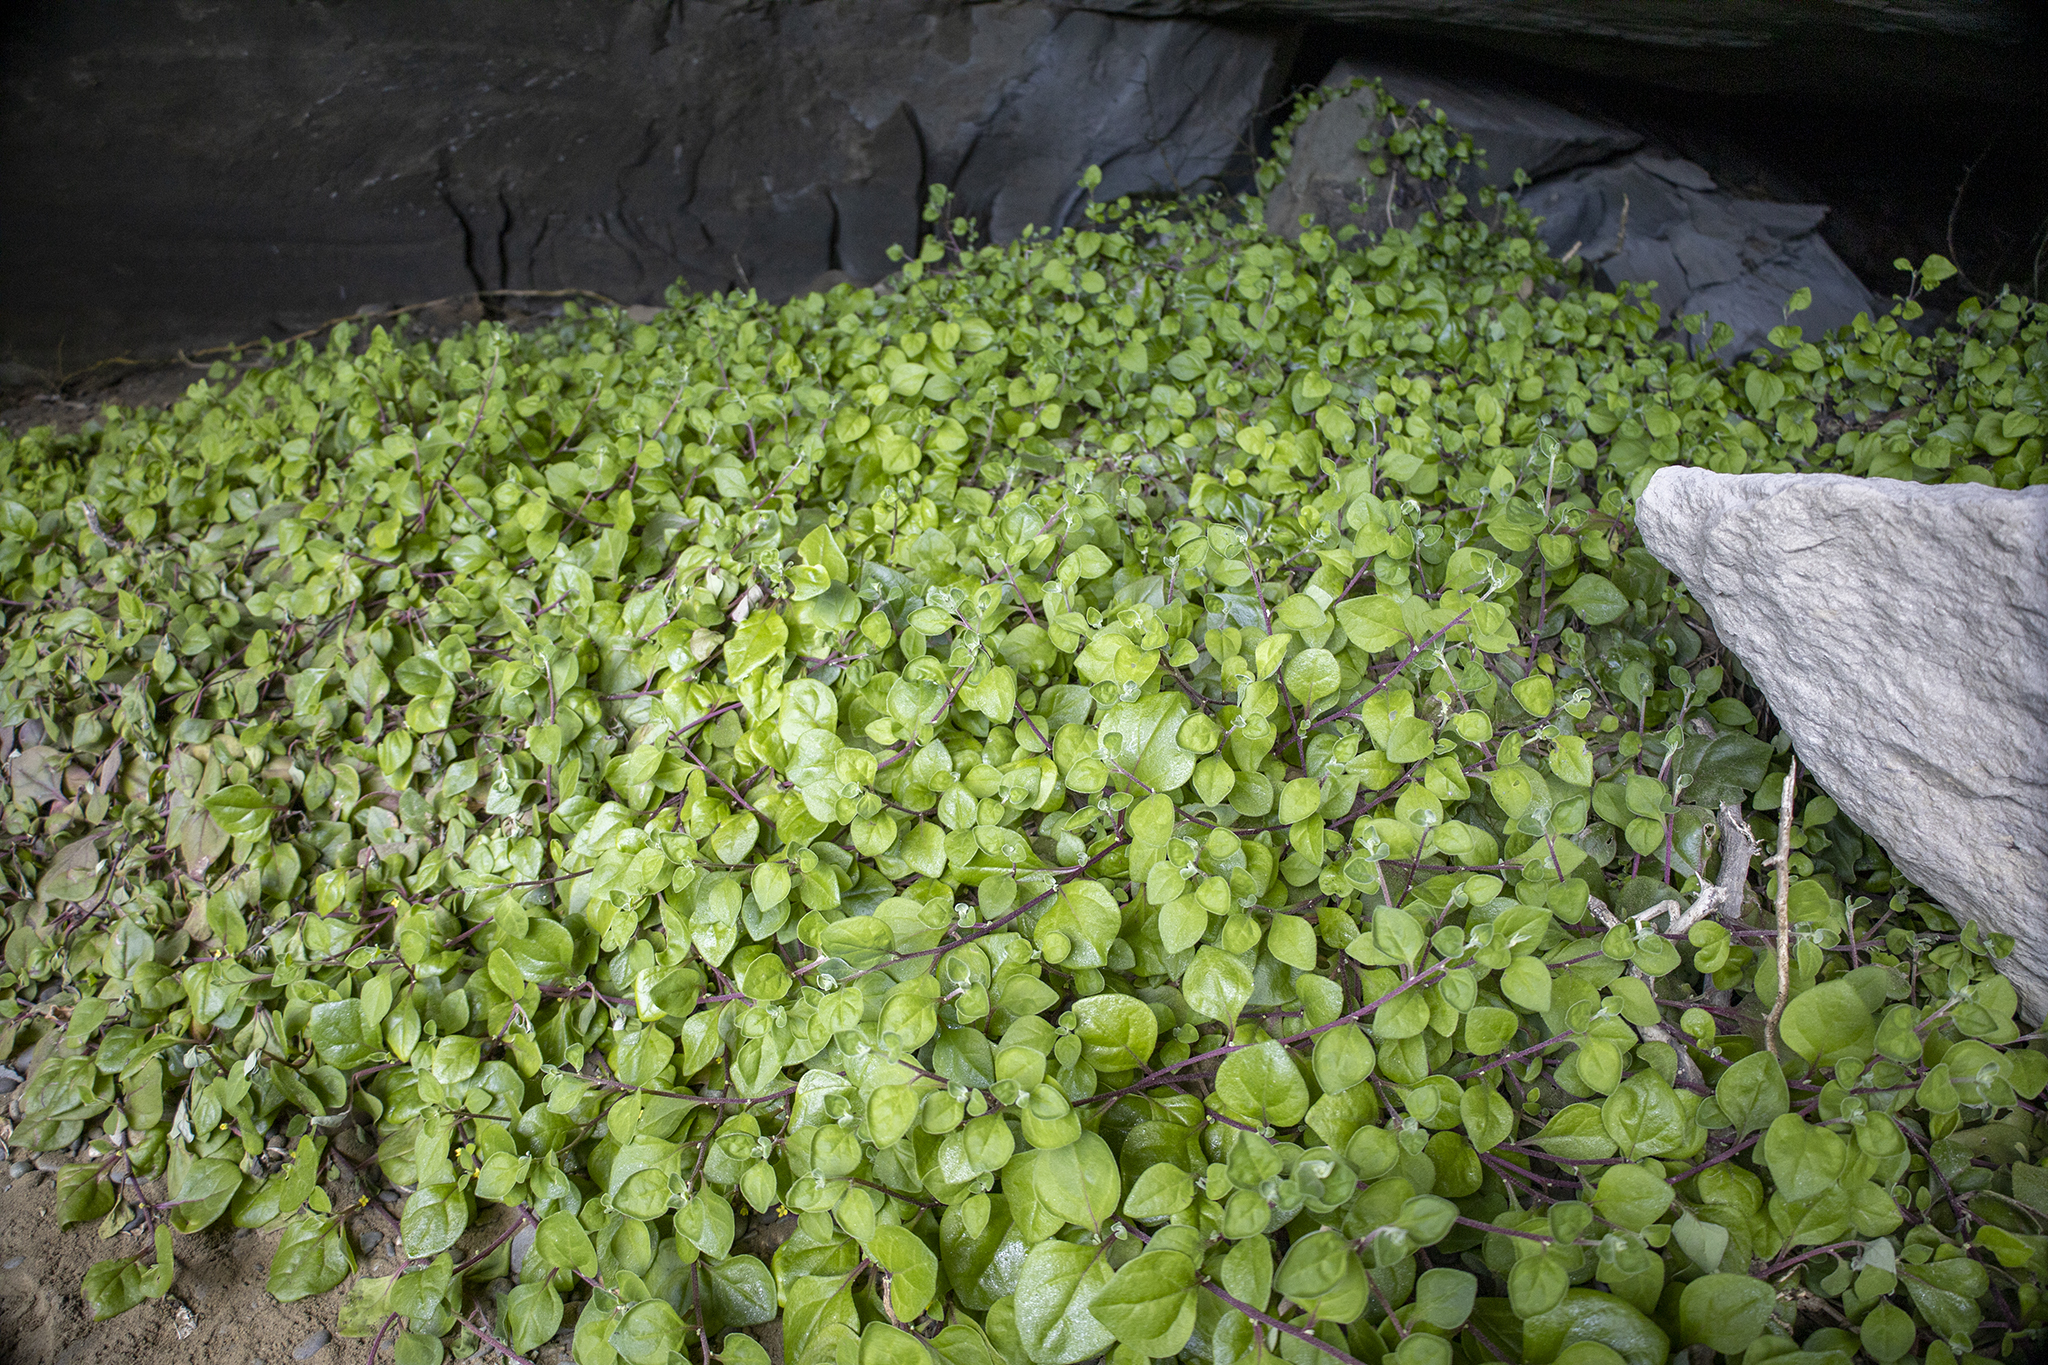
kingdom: Plantae
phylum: Tracheophyta
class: Magnoliopsida
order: Caryophyllales
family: Aizoaceae
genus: Tetragonia
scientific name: Tetragonia implexicoma
